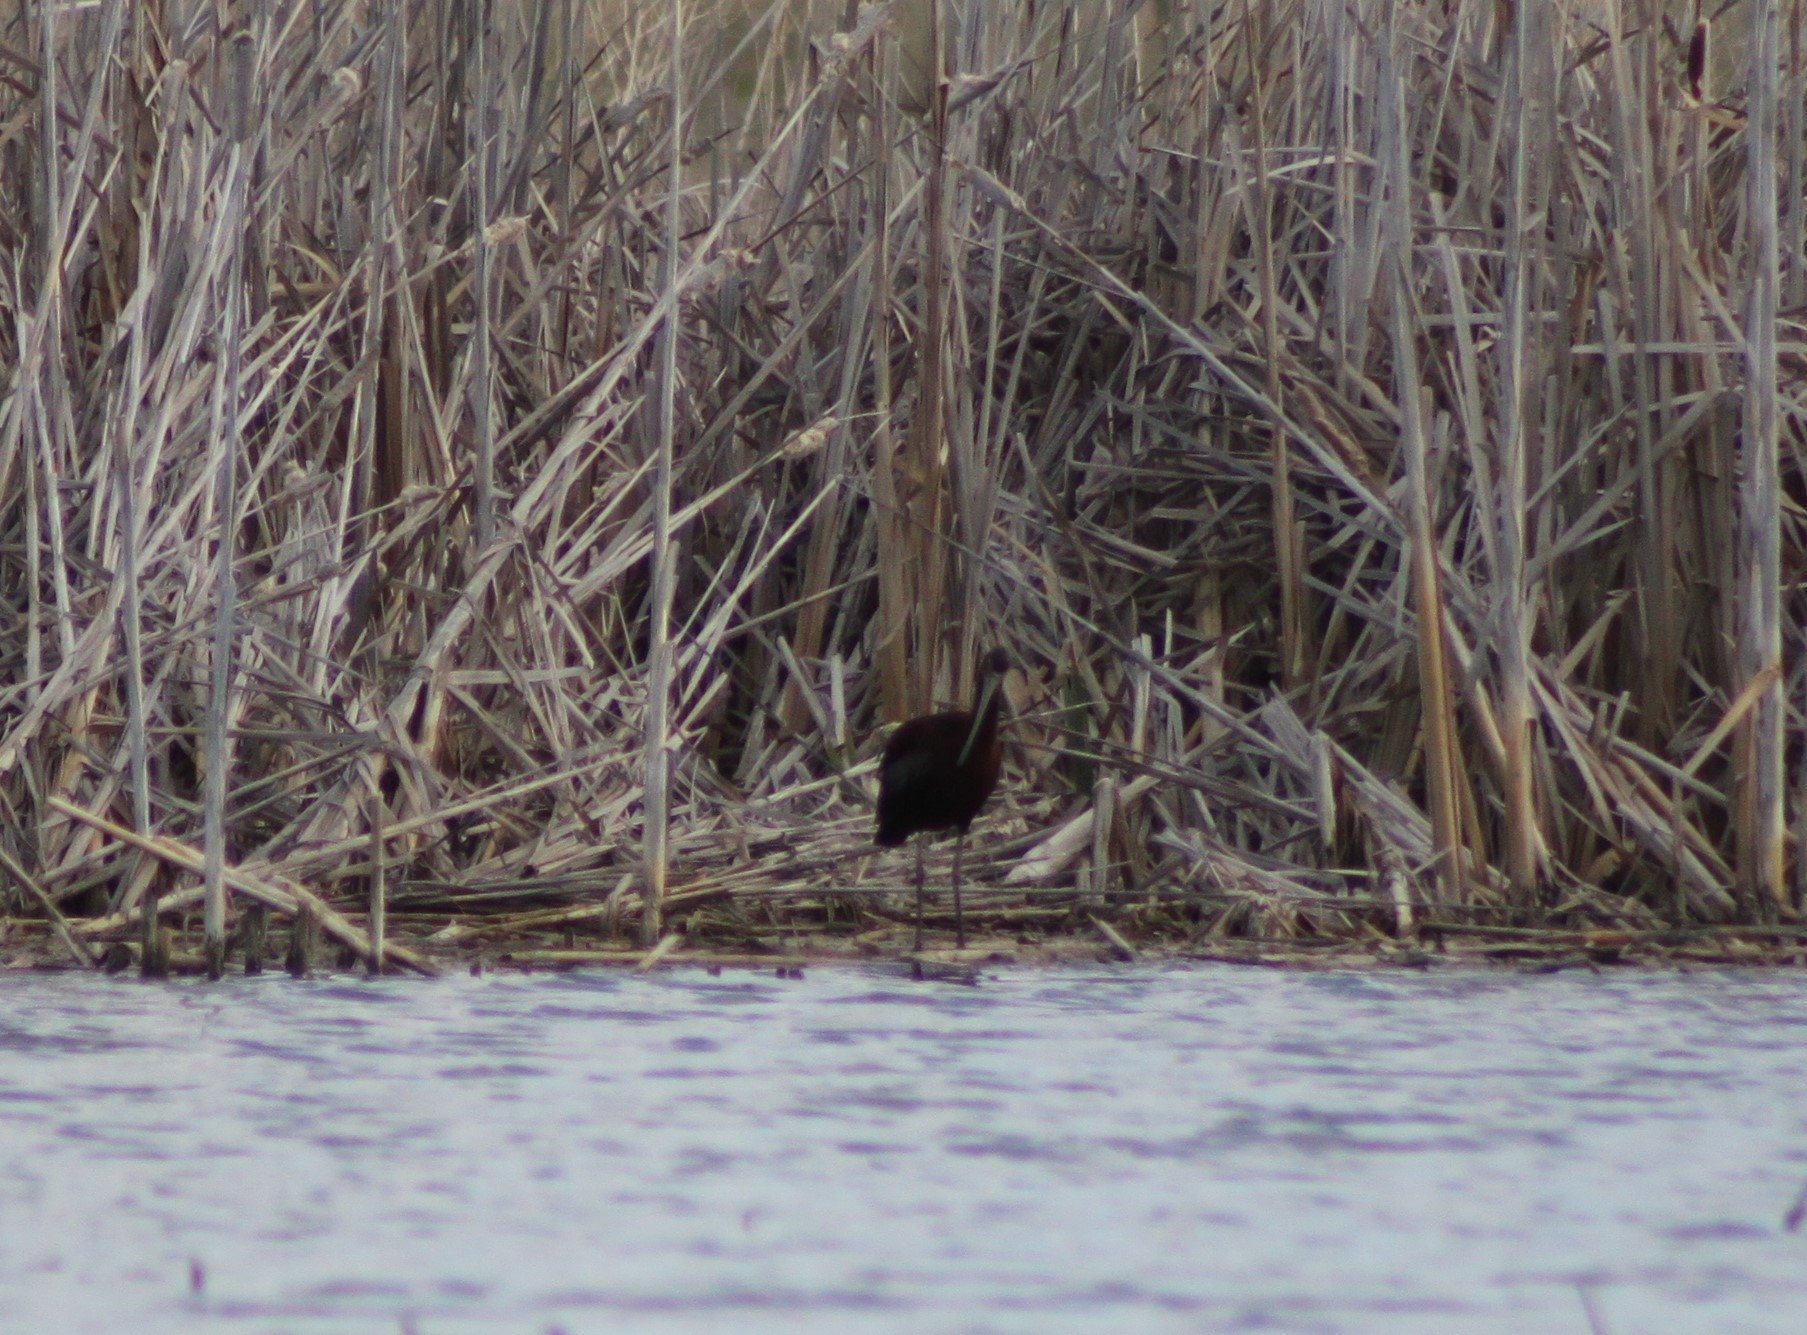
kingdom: Animalia
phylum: Chordata
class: Aves
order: Pelecaniformes
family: Threskiornithidae
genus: Plegadis
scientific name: Plegadis chihi
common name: White-faced ibis
